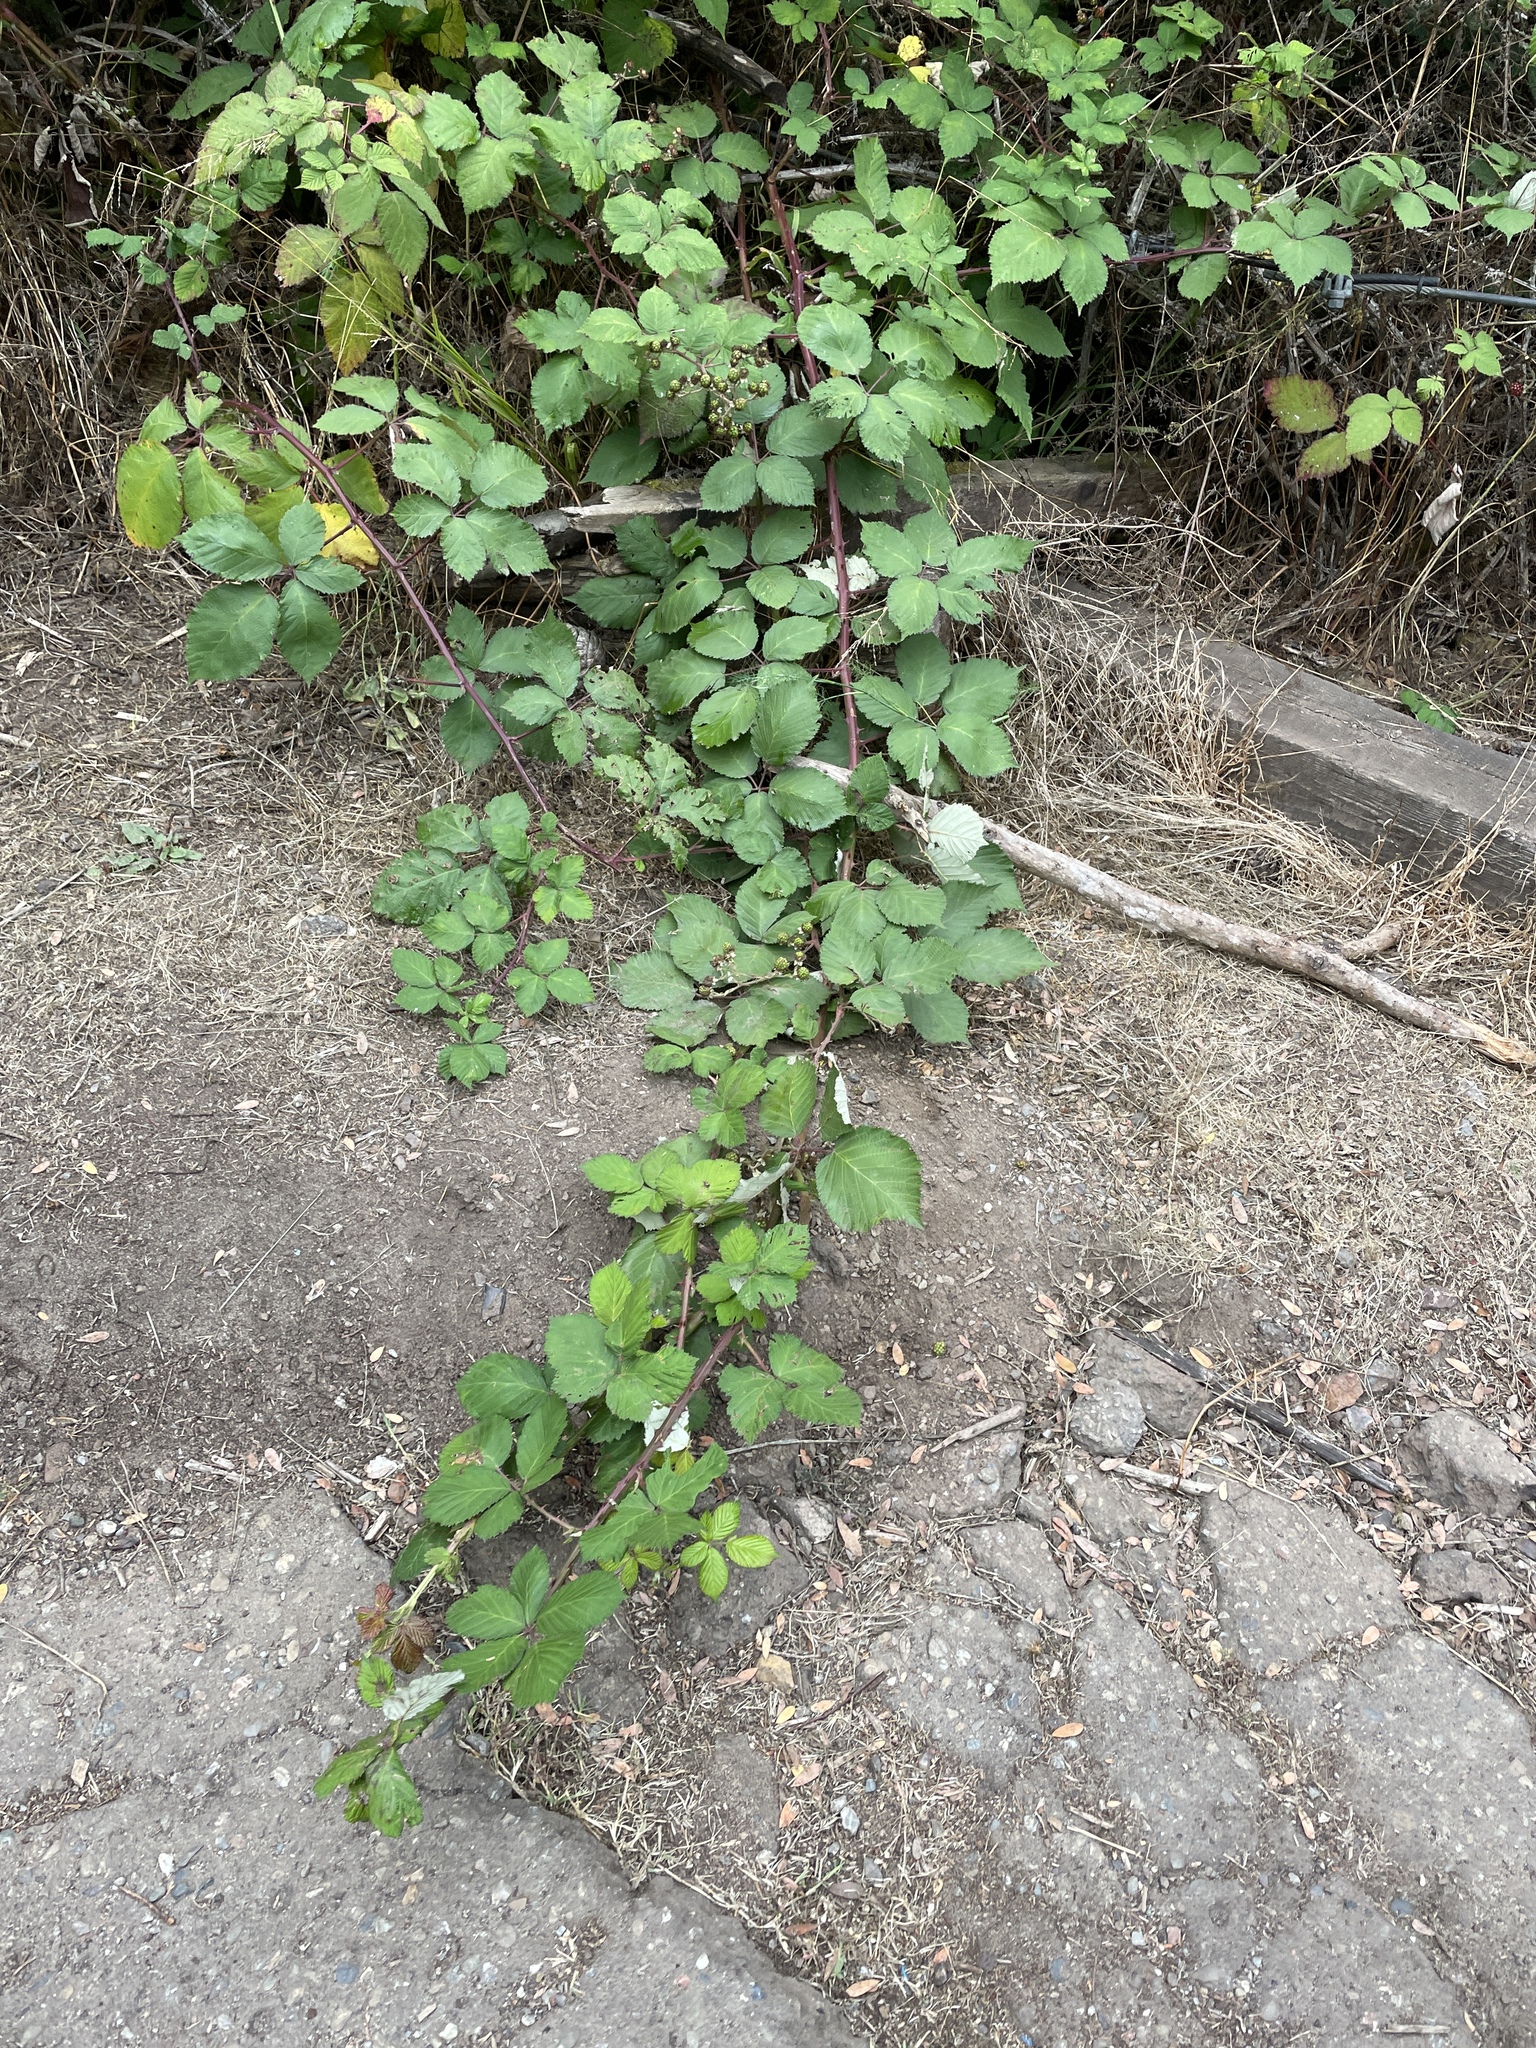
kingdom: Plantae
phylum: Tracheophyta
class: Magnoliopsida
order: Rosales
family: Rosaceae
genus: Rubus
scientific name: Rubus armeniacus
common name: Himalayan blackberry
